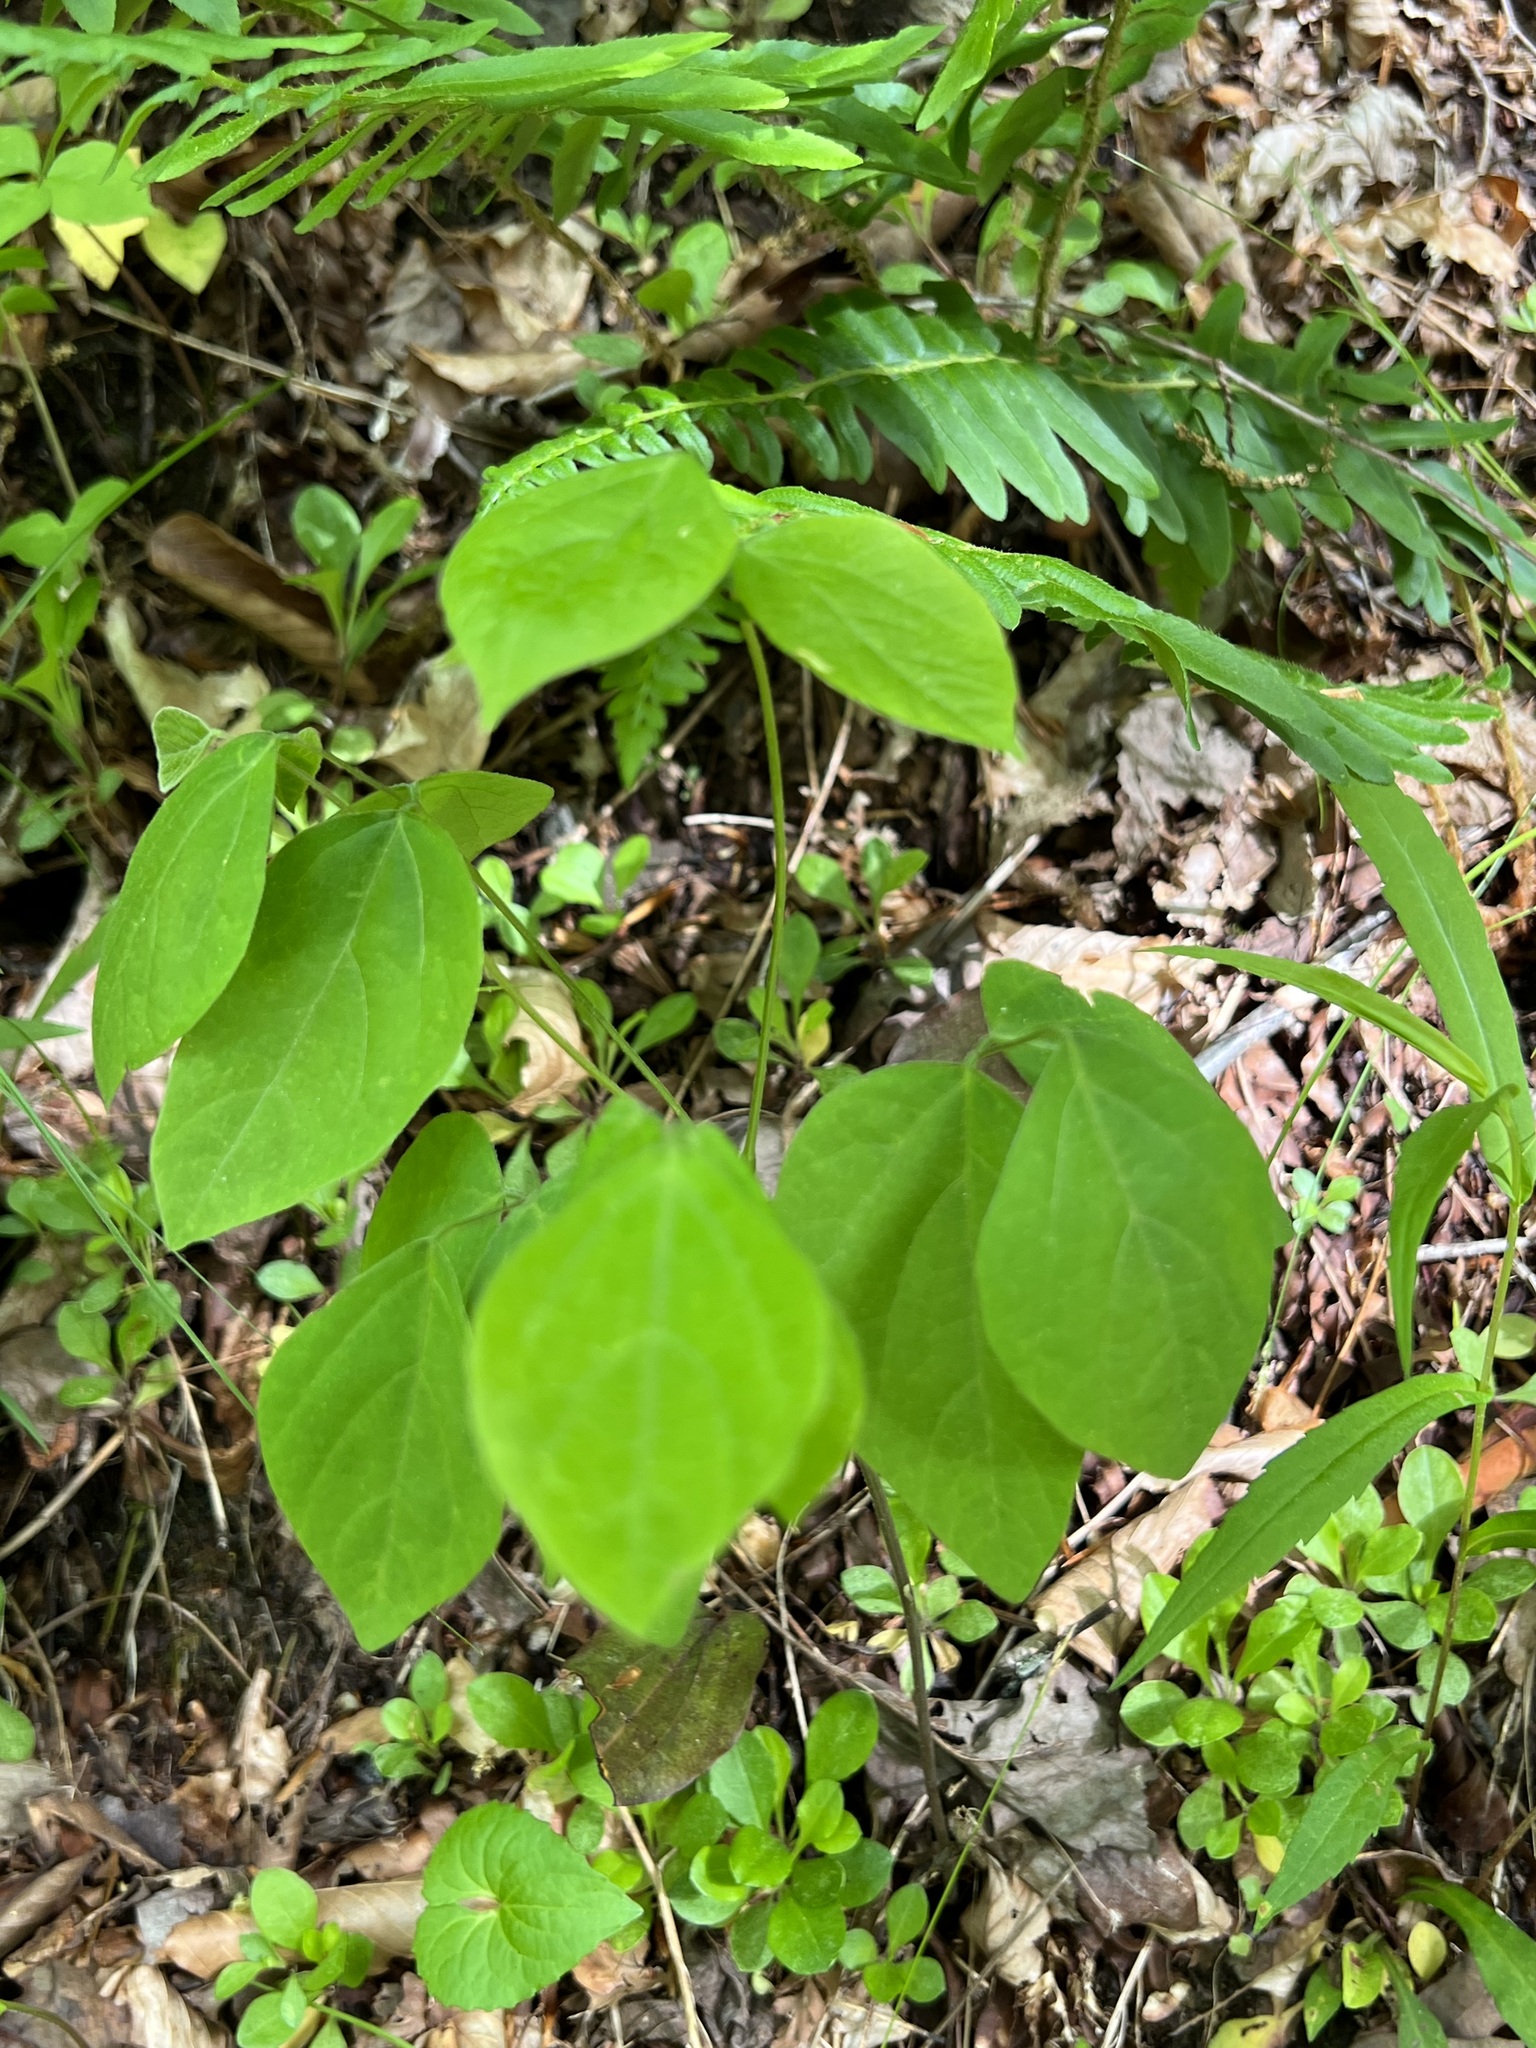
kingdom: Plantae
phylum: Tracheophyta
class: Magnoliopsida
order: Fabales
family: Fabaceae
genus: Hylodesmum
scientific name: Hylodesmum nudiflorum
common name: Bare-stemmed tick-trefoil
